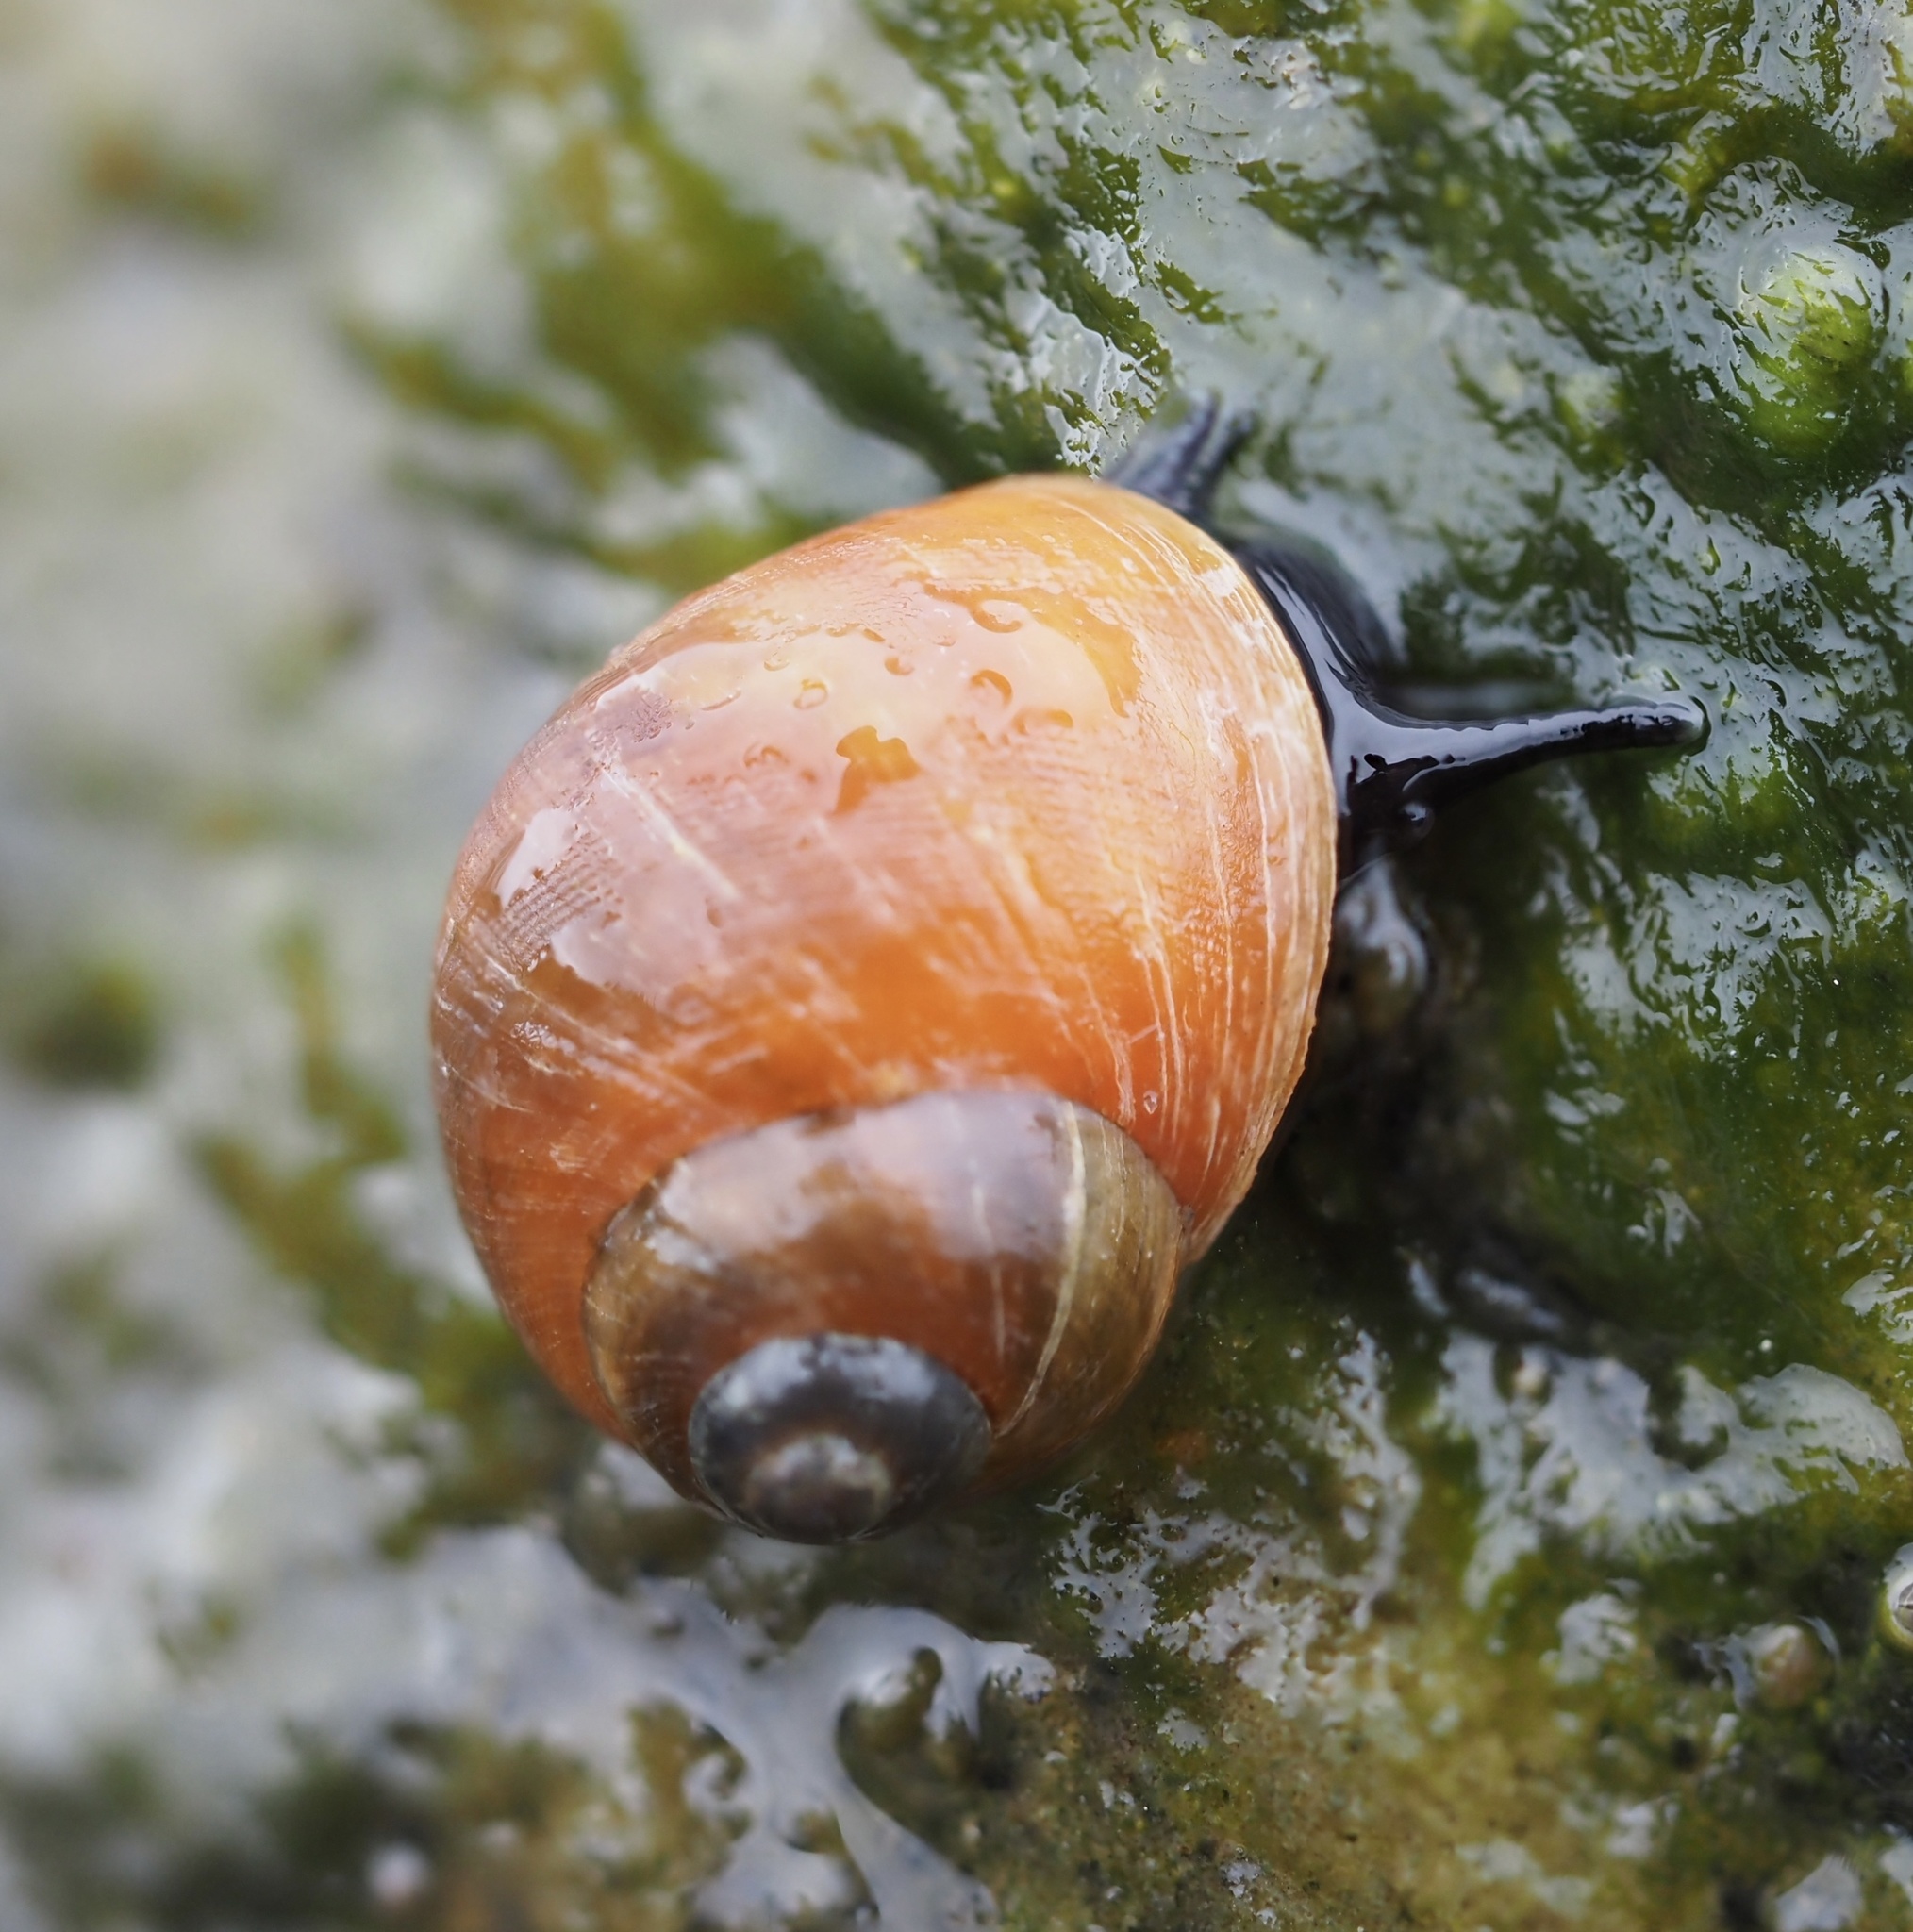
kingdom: Animalia
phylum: Mollusca
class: Gastropoda
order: Littorinimorpha
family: Littorinidae
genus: Littorina
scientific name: Littorina obtusata
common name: Flat periwinkle
